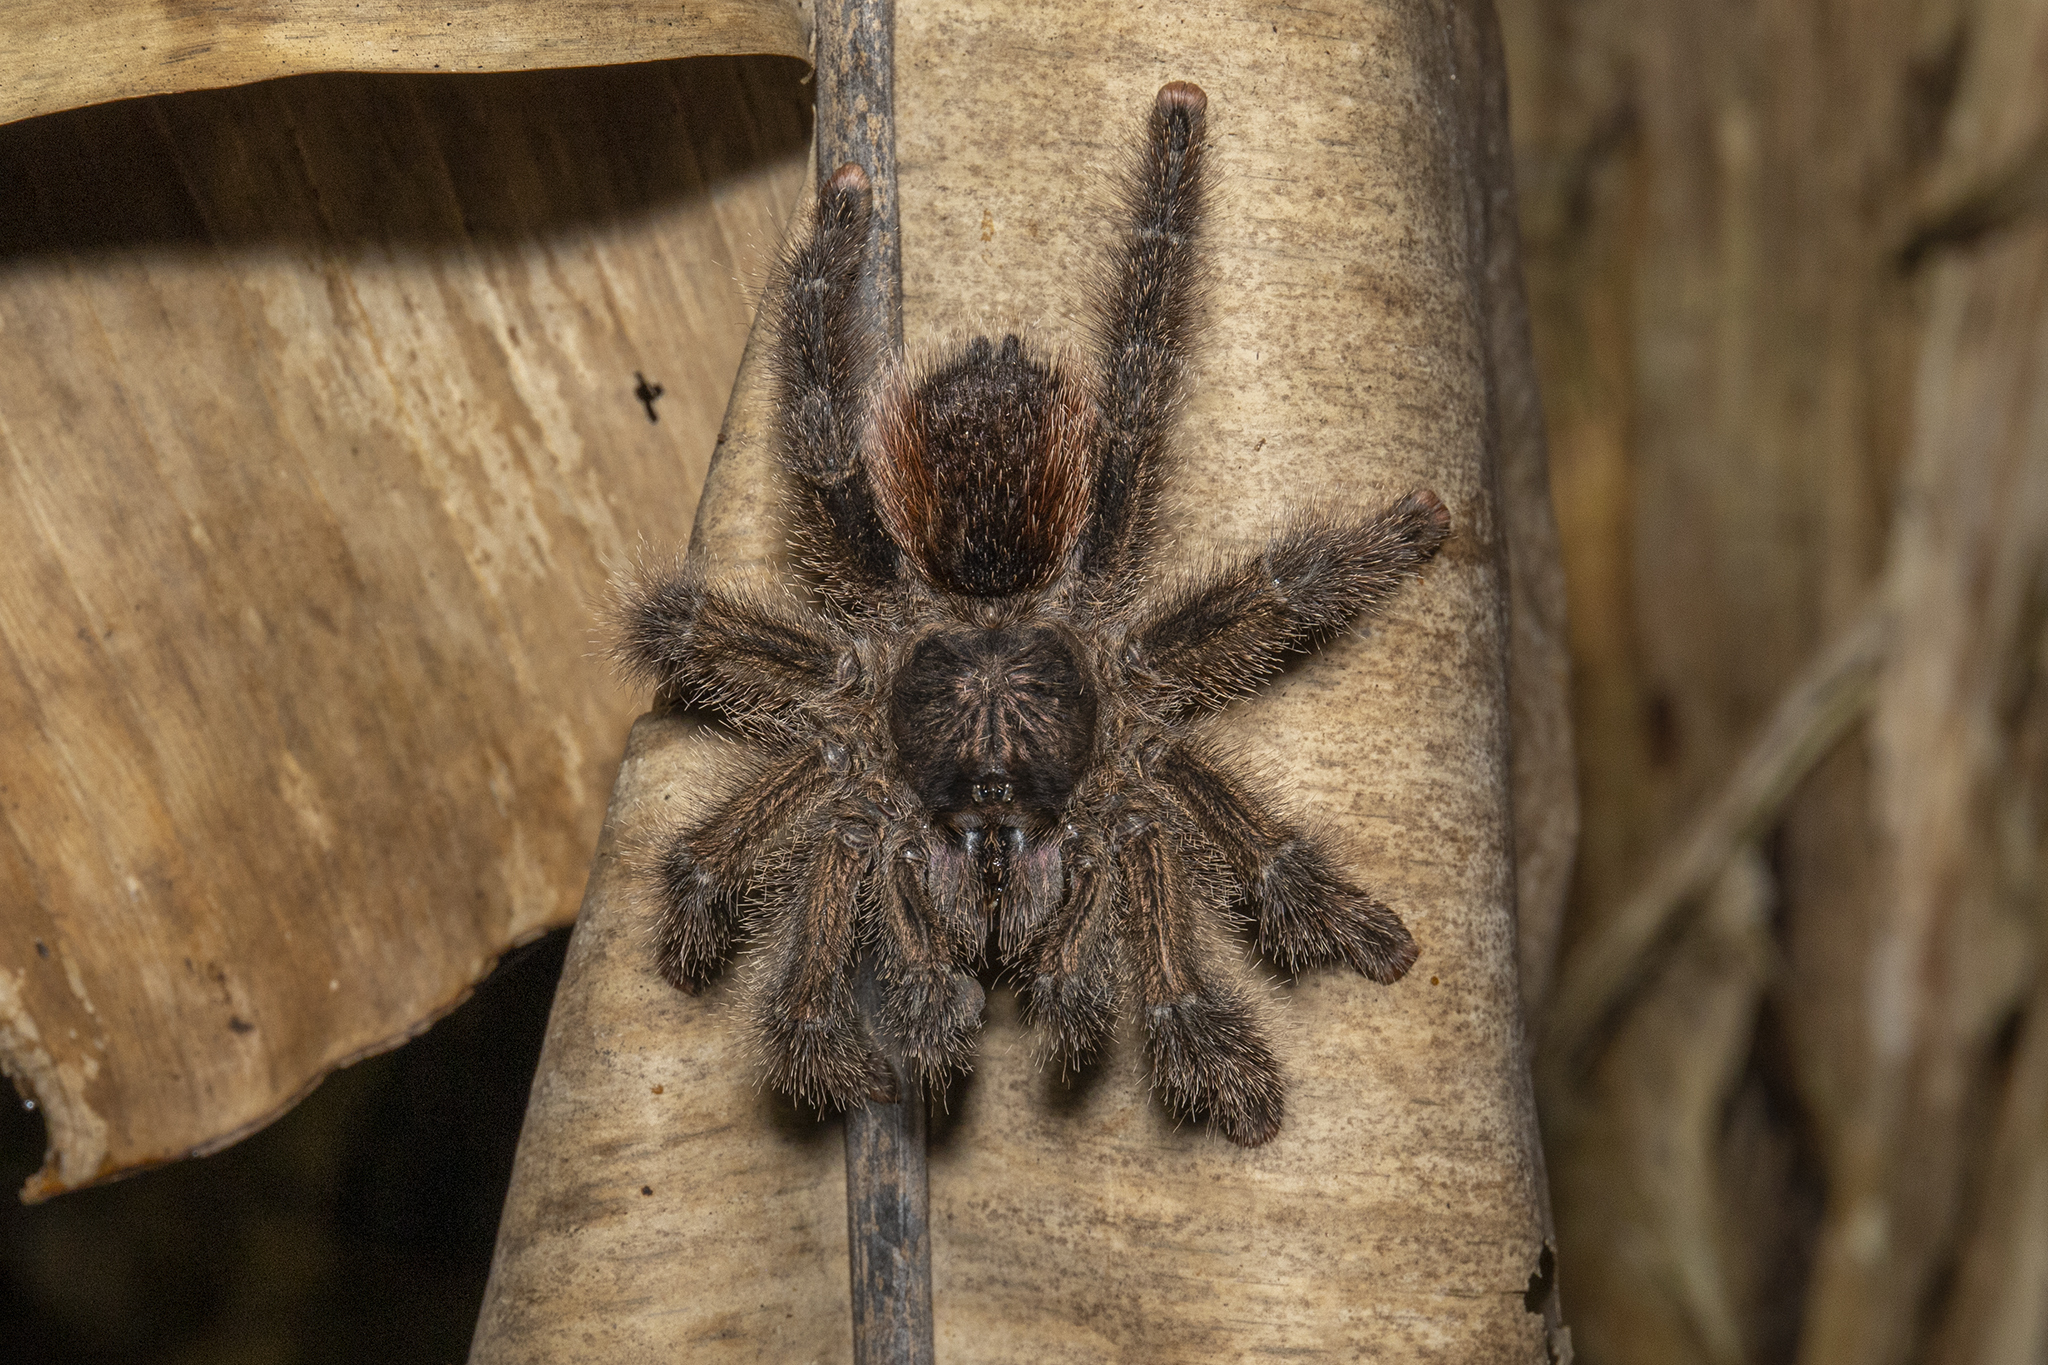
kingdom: Animalia
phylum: Arthropoda
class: Arachnida
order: Araneae
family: Theraphosidae
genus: Avicularia
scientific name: Avicularia juruensis
